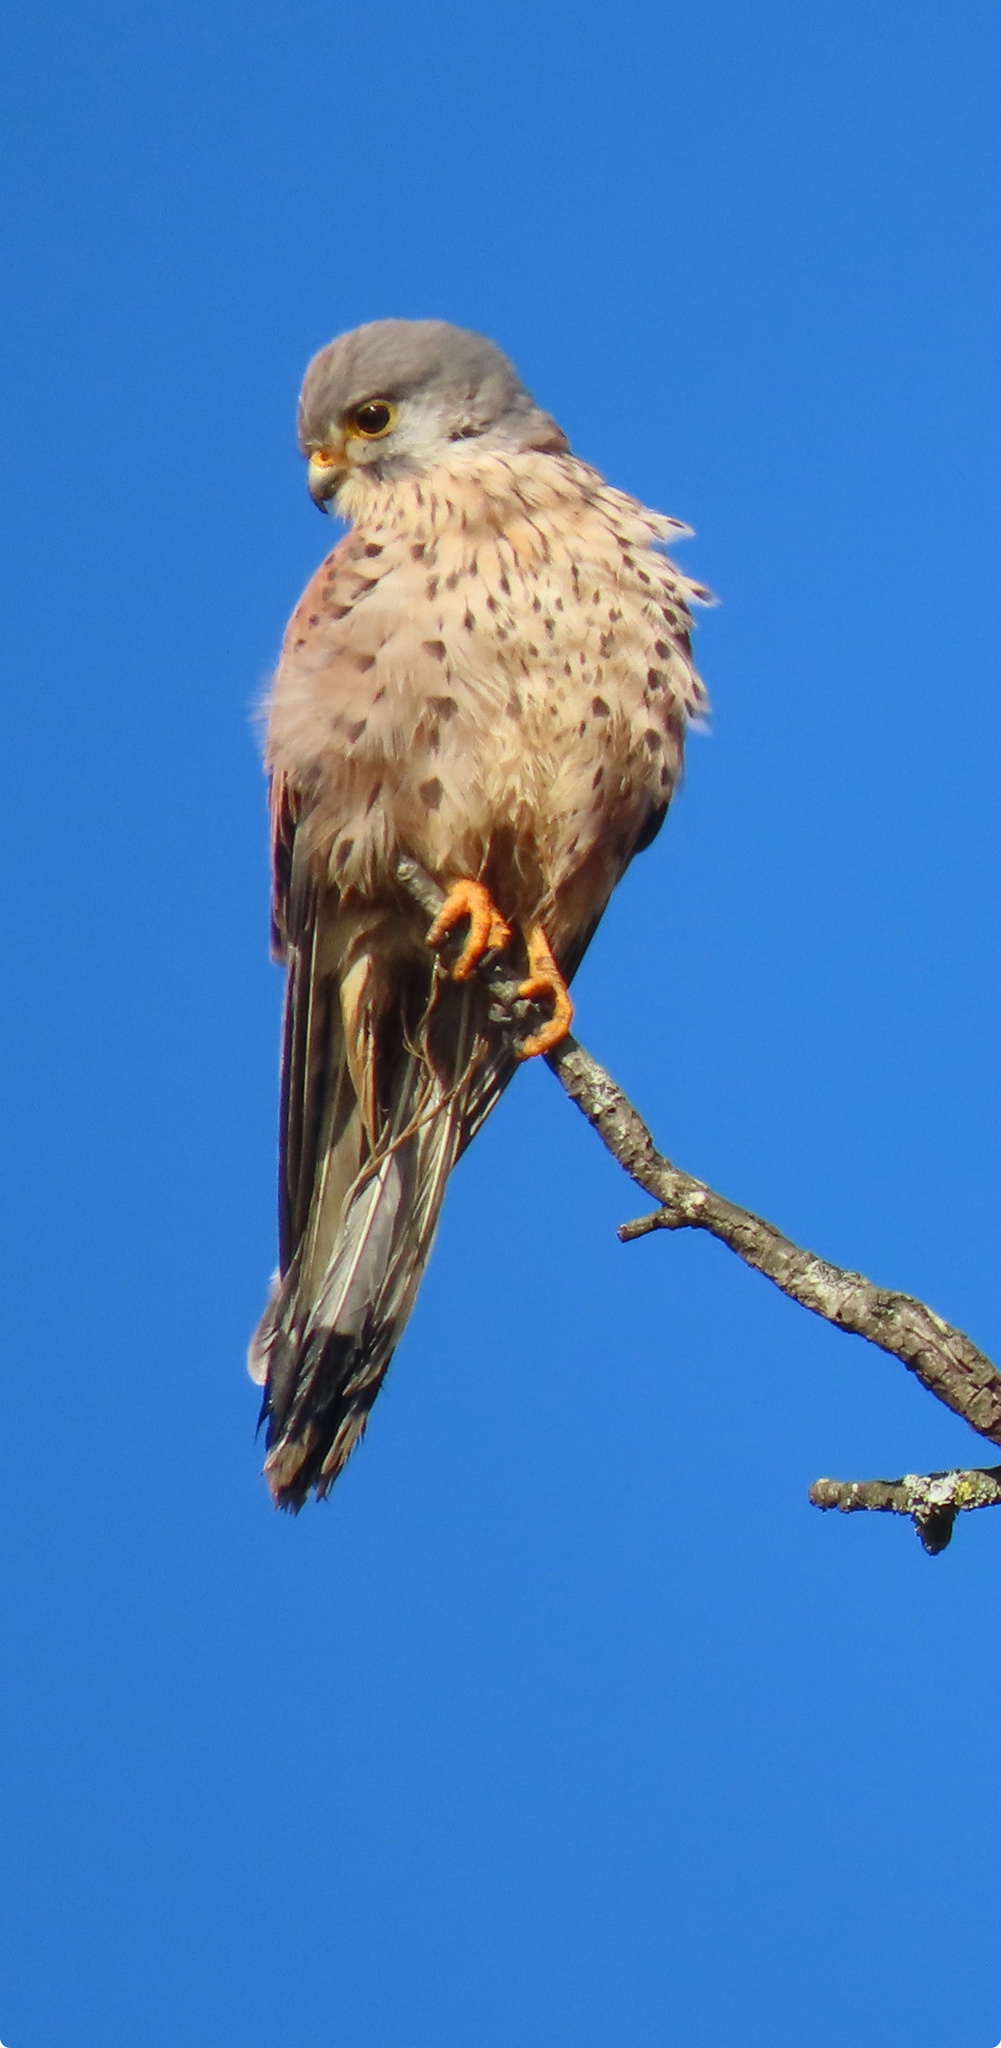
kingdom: Animalia
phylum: Chordata
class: Aves
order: Falconiformes
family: Falconidae
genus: Falco
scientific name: Falco tinnunculus
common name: Common kestrel
